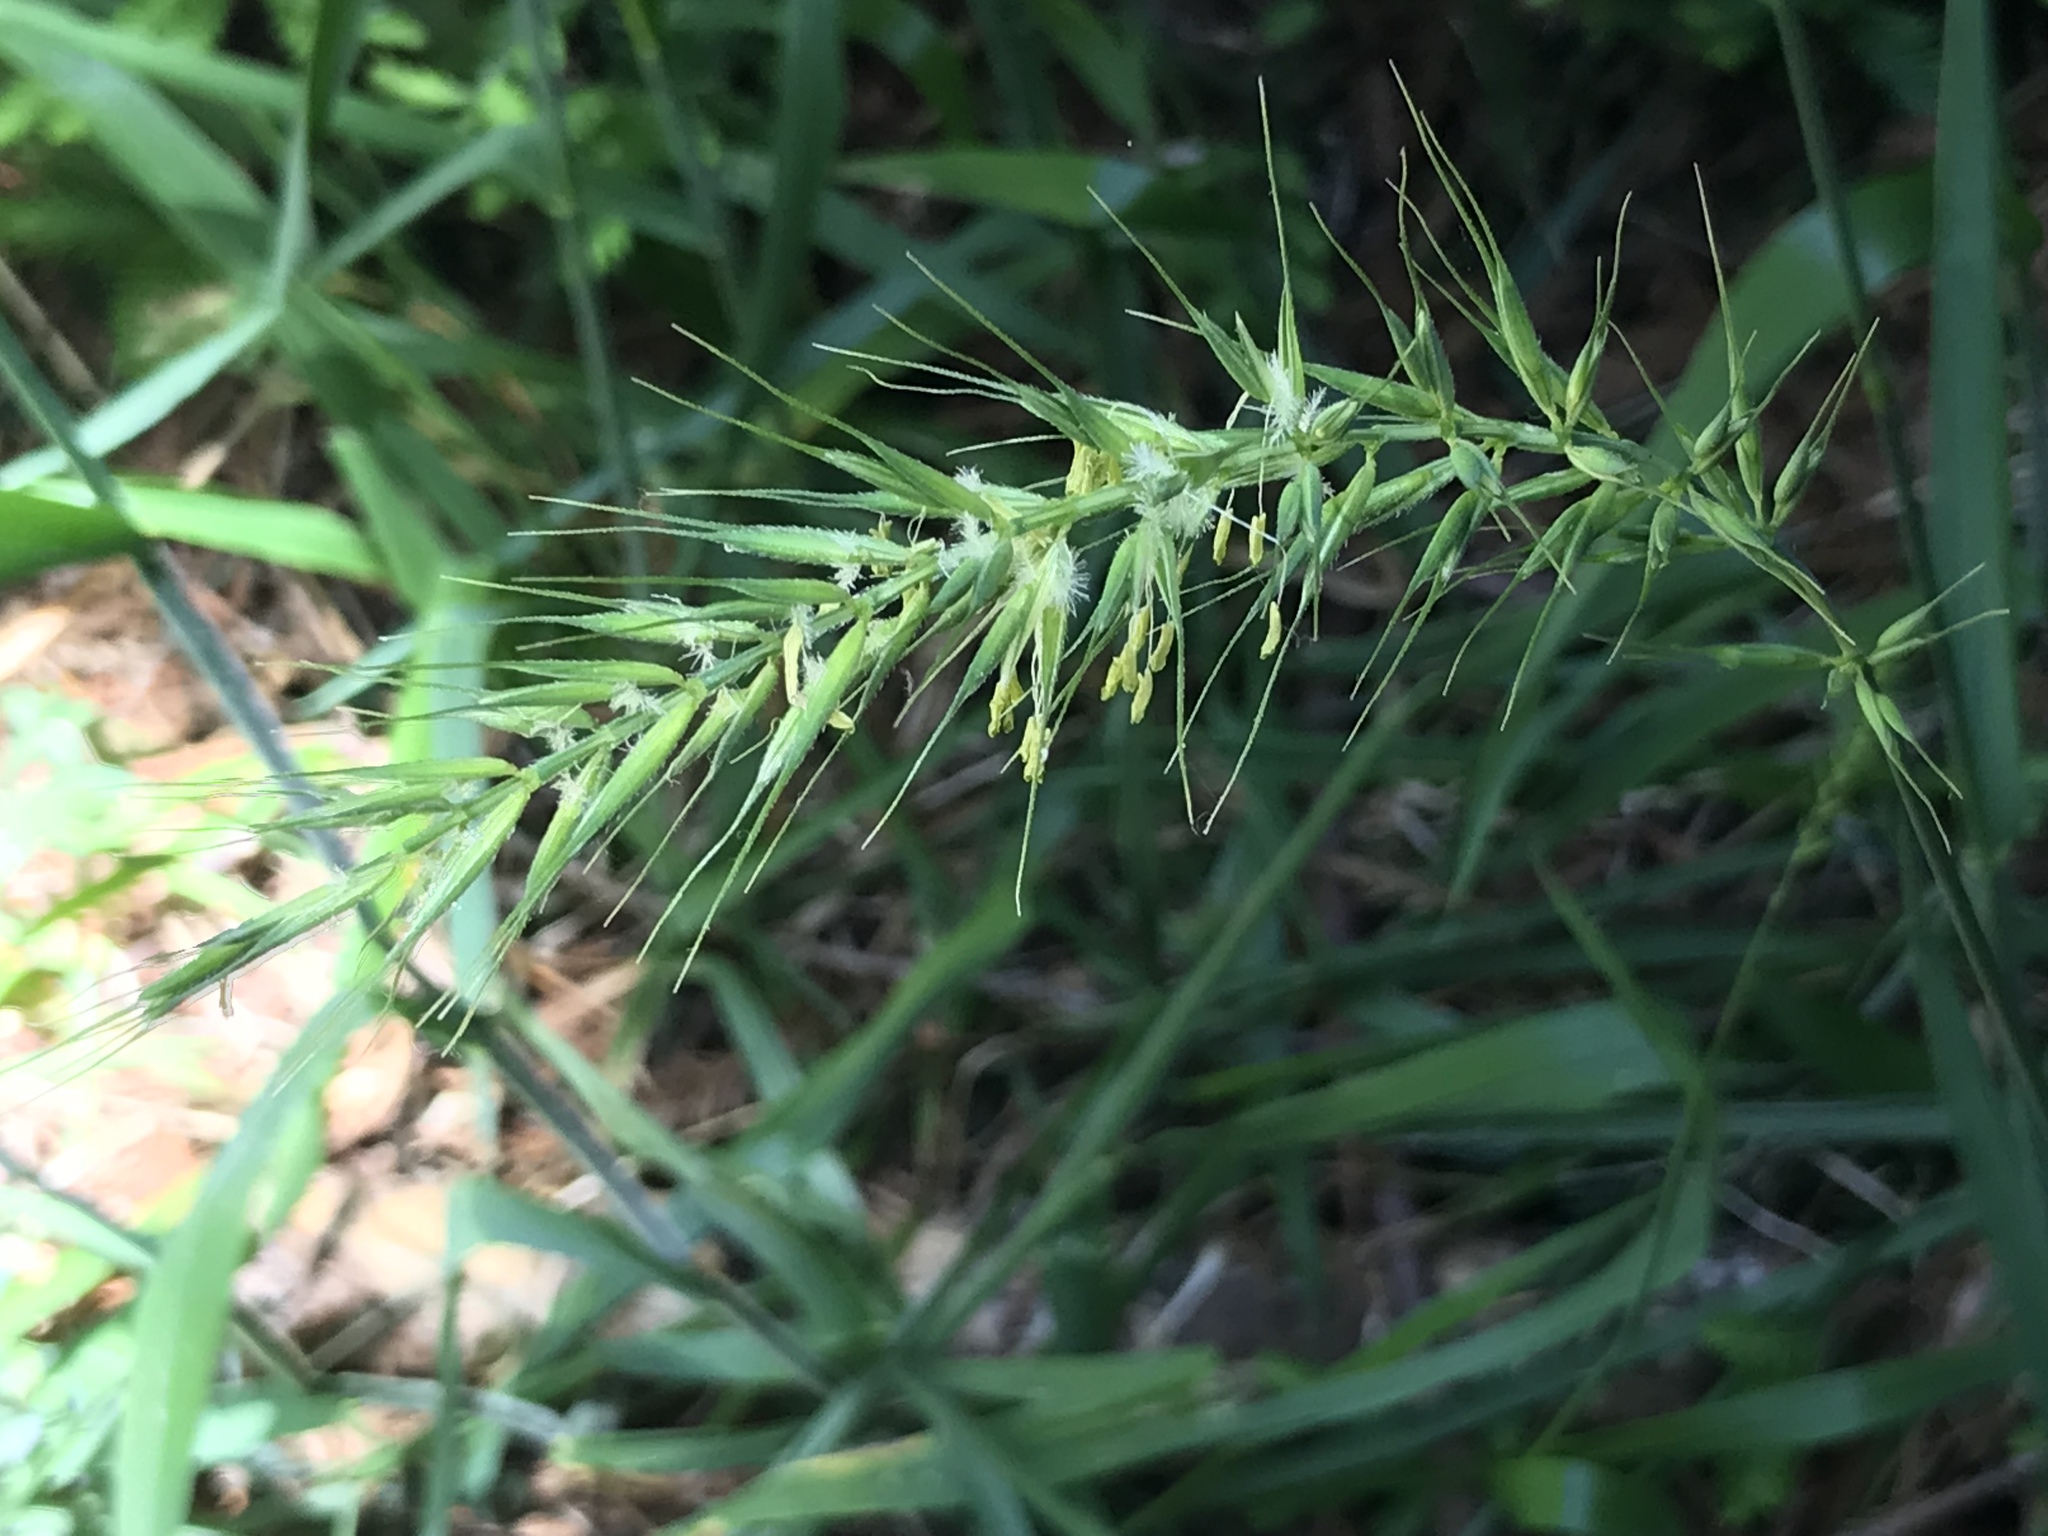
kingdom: Plantae
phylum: Tracheophyta
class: Liliopsida
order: Poales
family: Poaceae
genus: Elymus
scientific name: Elymus californicus
